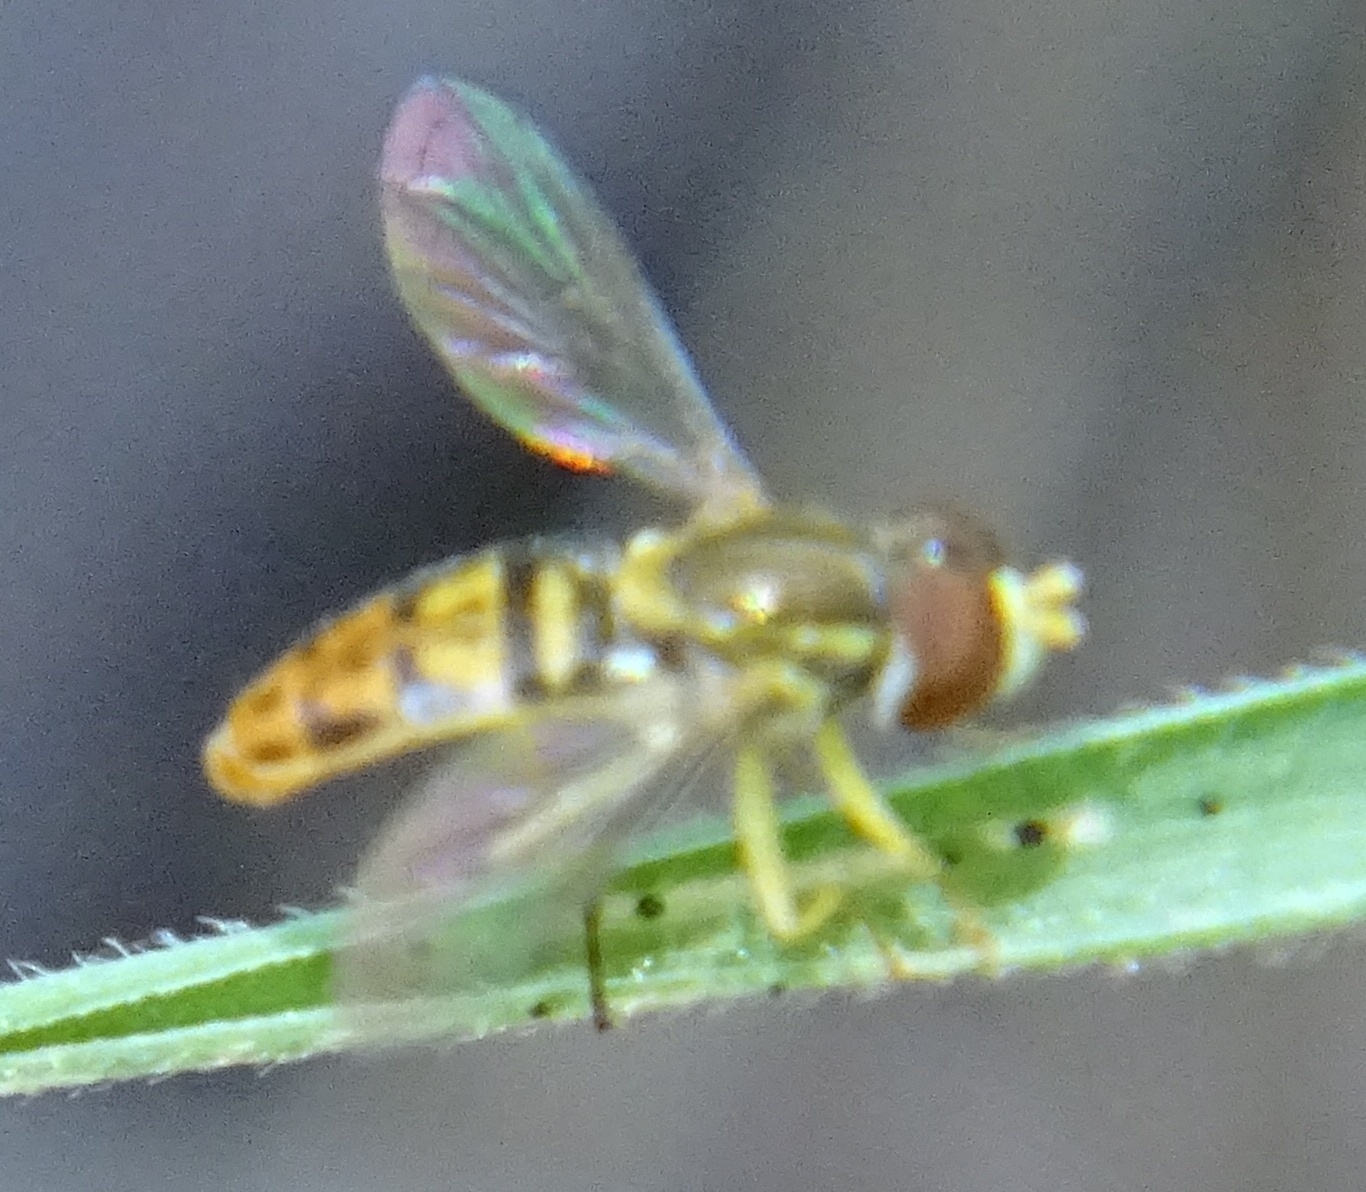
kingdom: Animalia
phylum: Arthropoda
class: Insecta
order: Diptera
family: Syrphidae
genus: Toxomerus
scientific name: Toxomerus marginatus
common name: Syrphid fly
